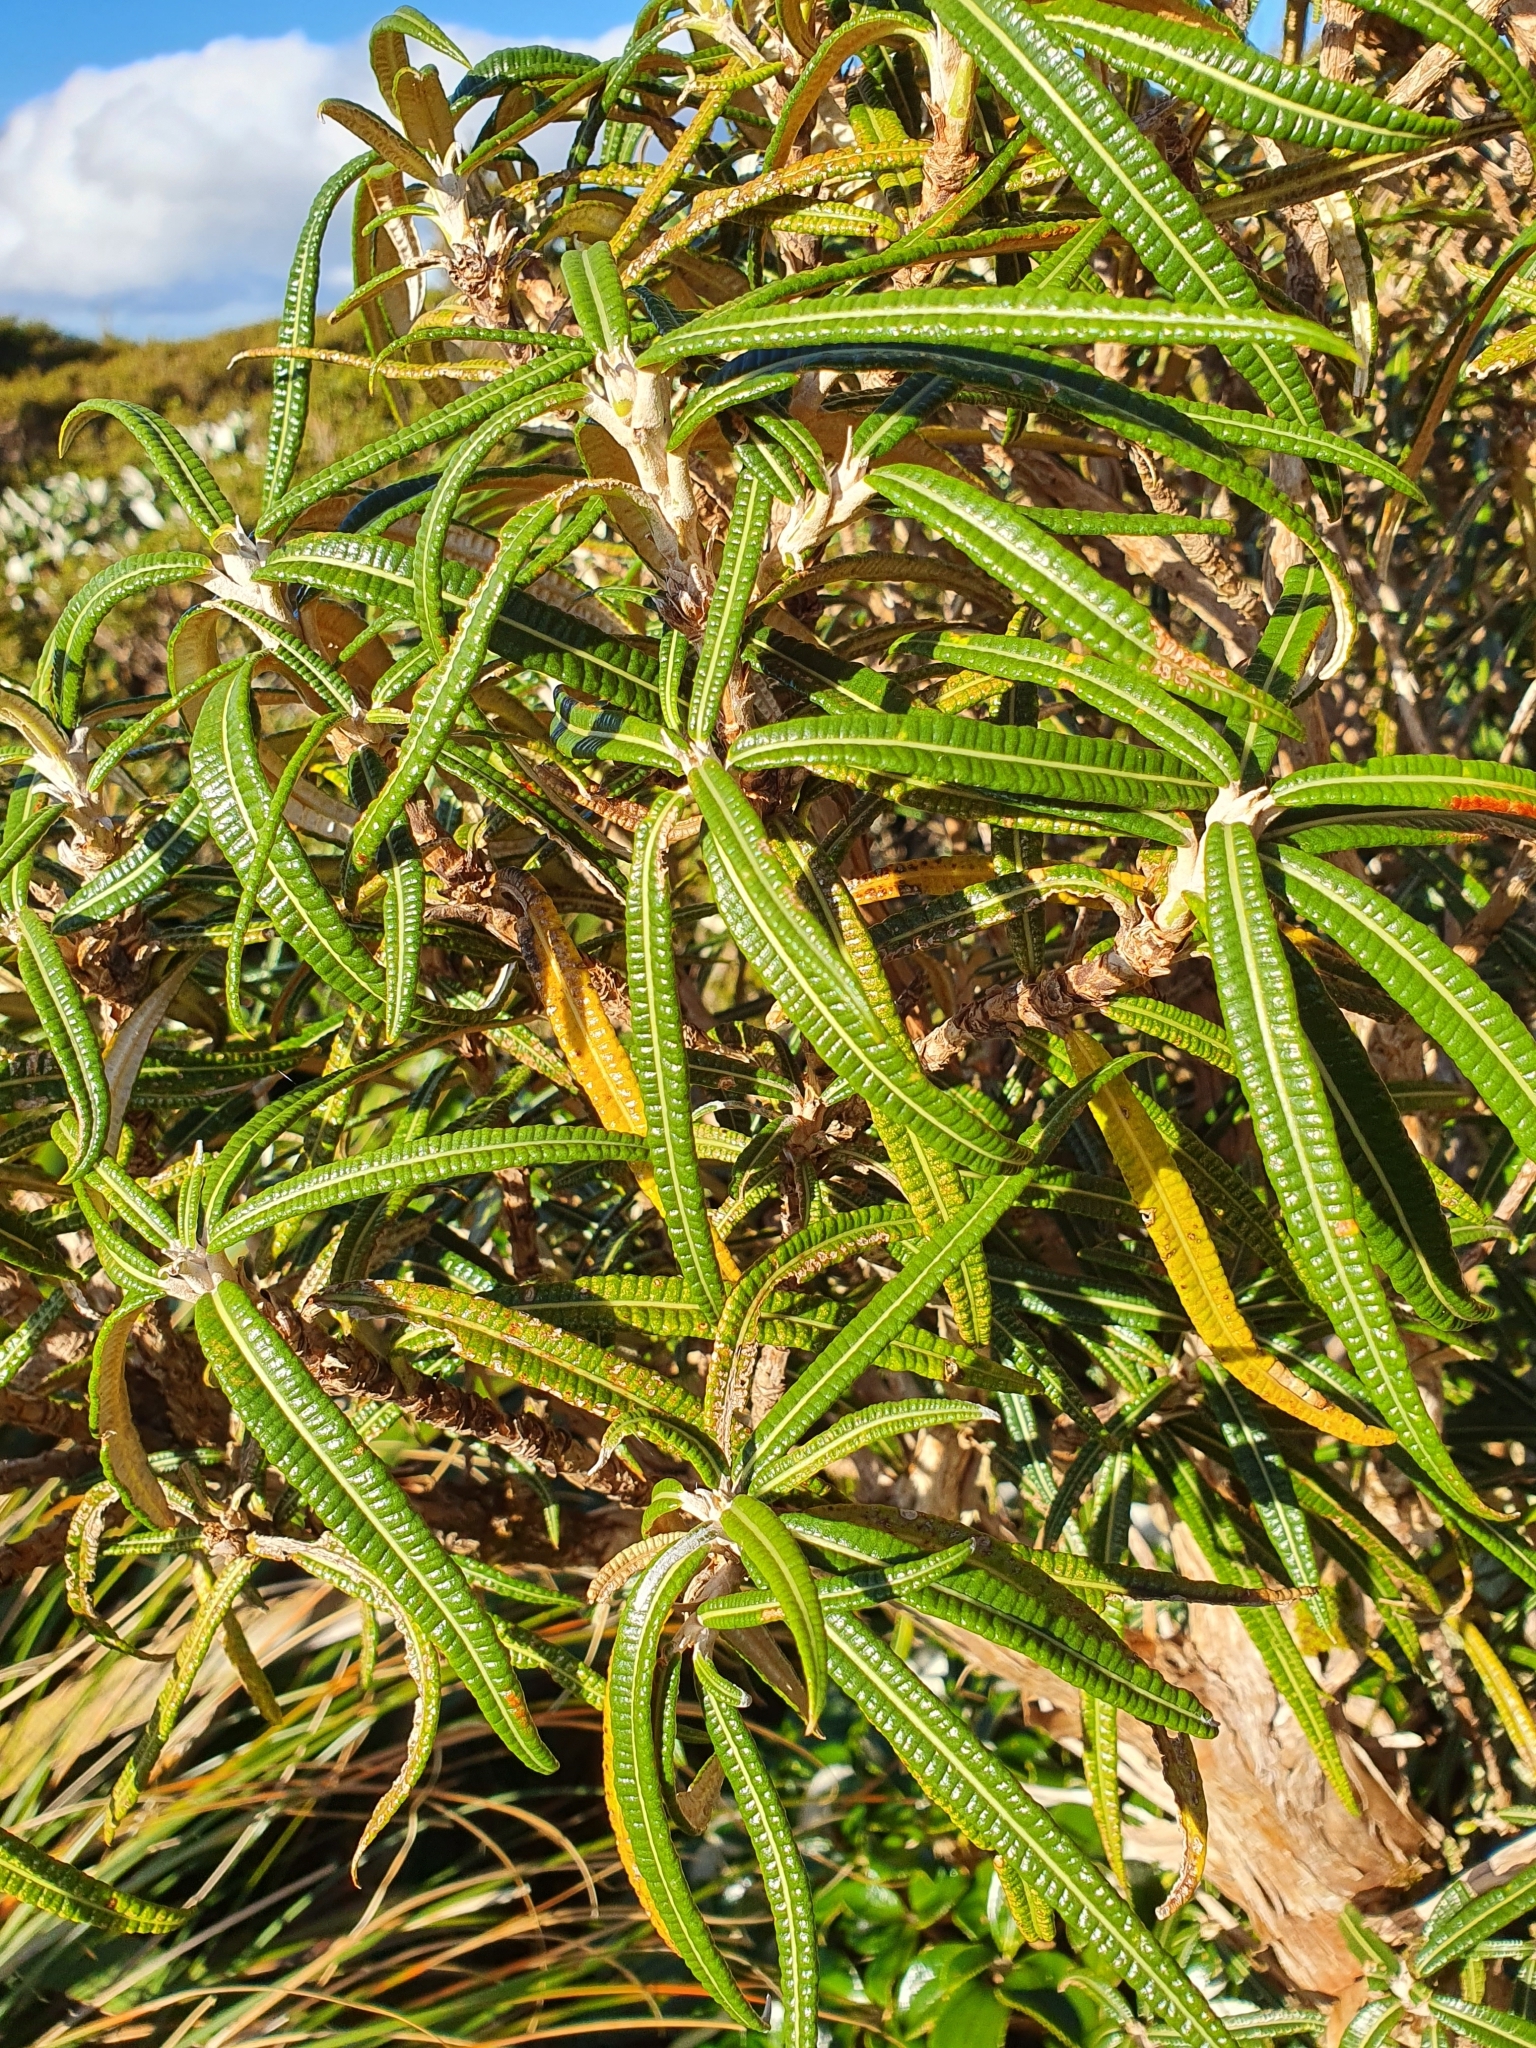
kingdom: Plantae
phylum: Tracheophyta
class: Magnoliopsida
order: Asterales
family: Asteraceae
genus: Olearia
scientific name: Olearia lacunosa
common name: Lancewood tree daisy
